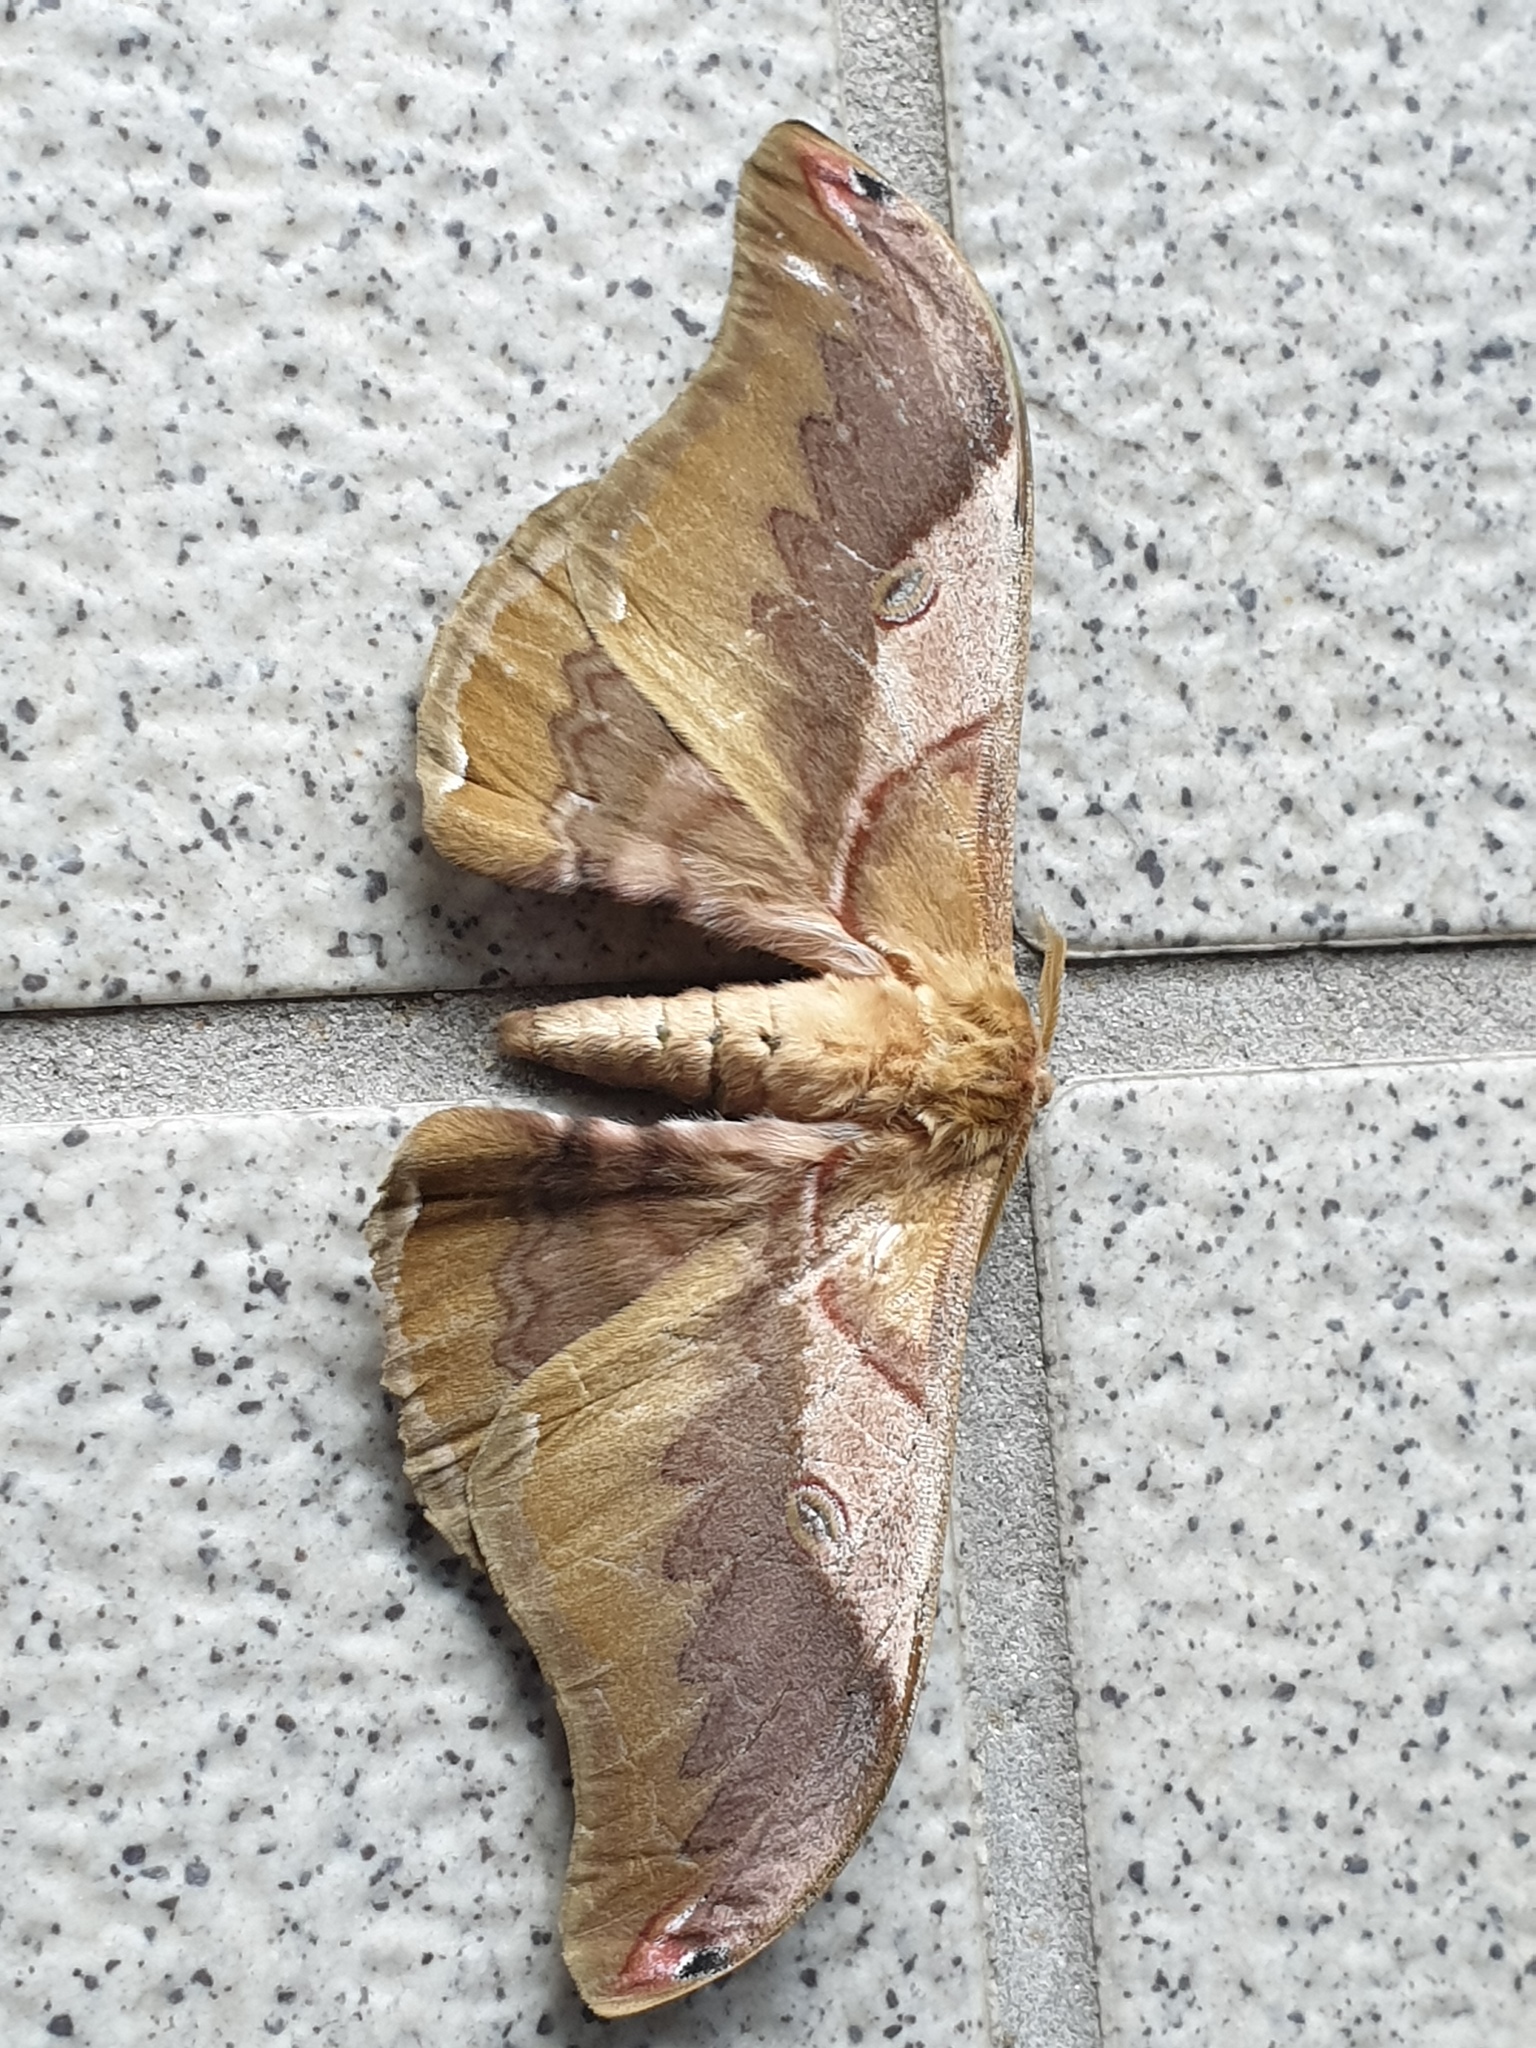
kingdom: Animalia
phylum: Arthropoda
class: Insecta
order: Lepidoptera
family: Saturniidae
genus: Saturnia
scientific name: Saturnia japonica
